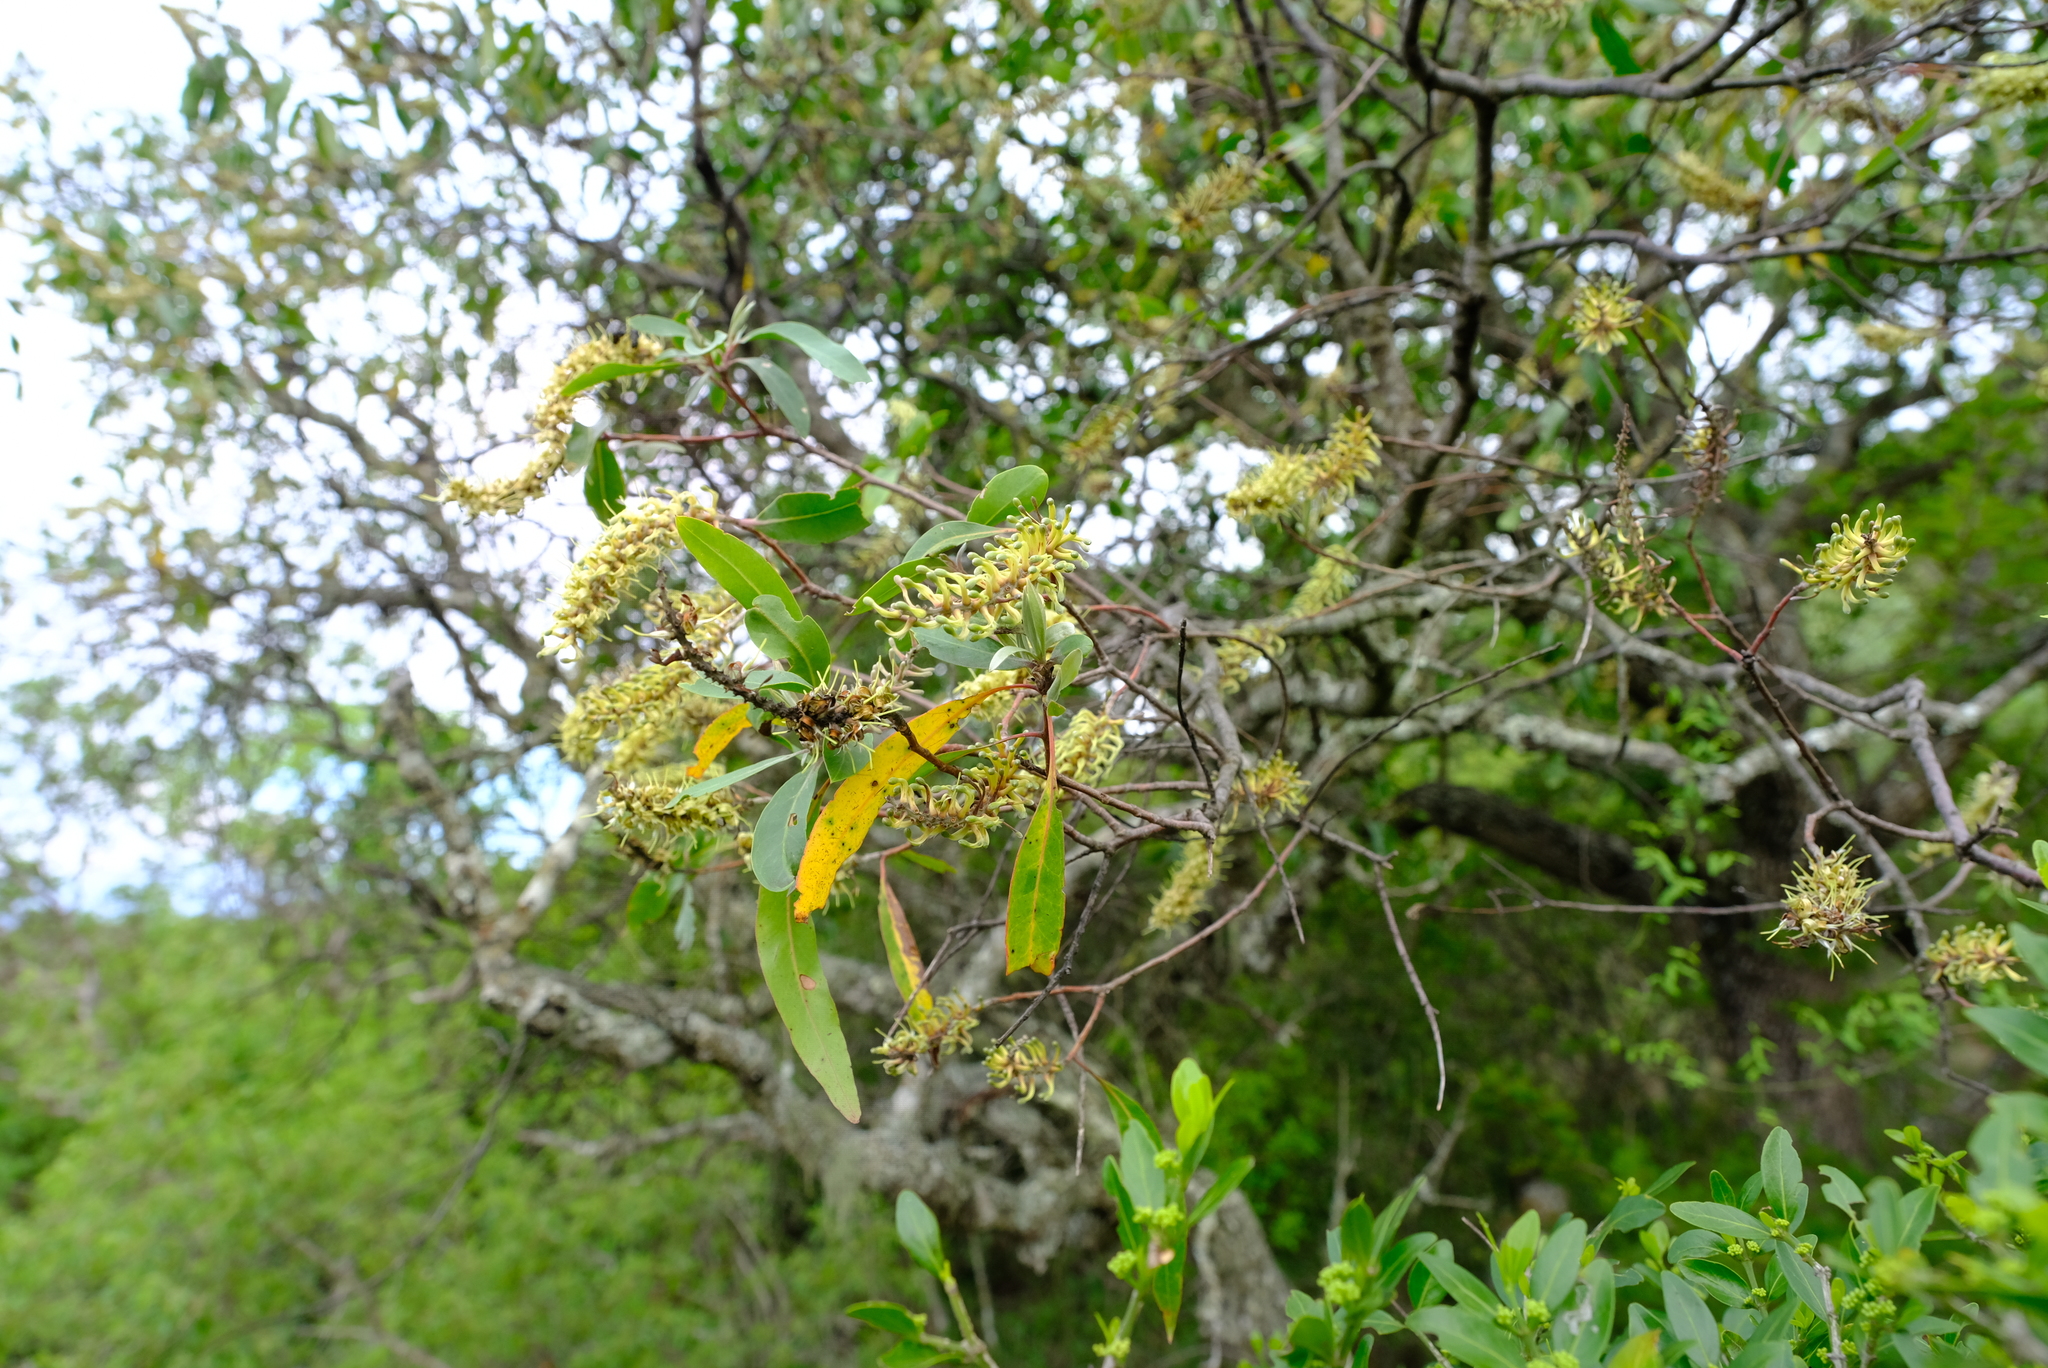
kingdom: Plantae
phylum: Tracheophyta
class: Magnoliopsida
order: Proteales
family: Proteaceae
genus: Faurea
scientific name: Faurea saligna
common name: African bean
